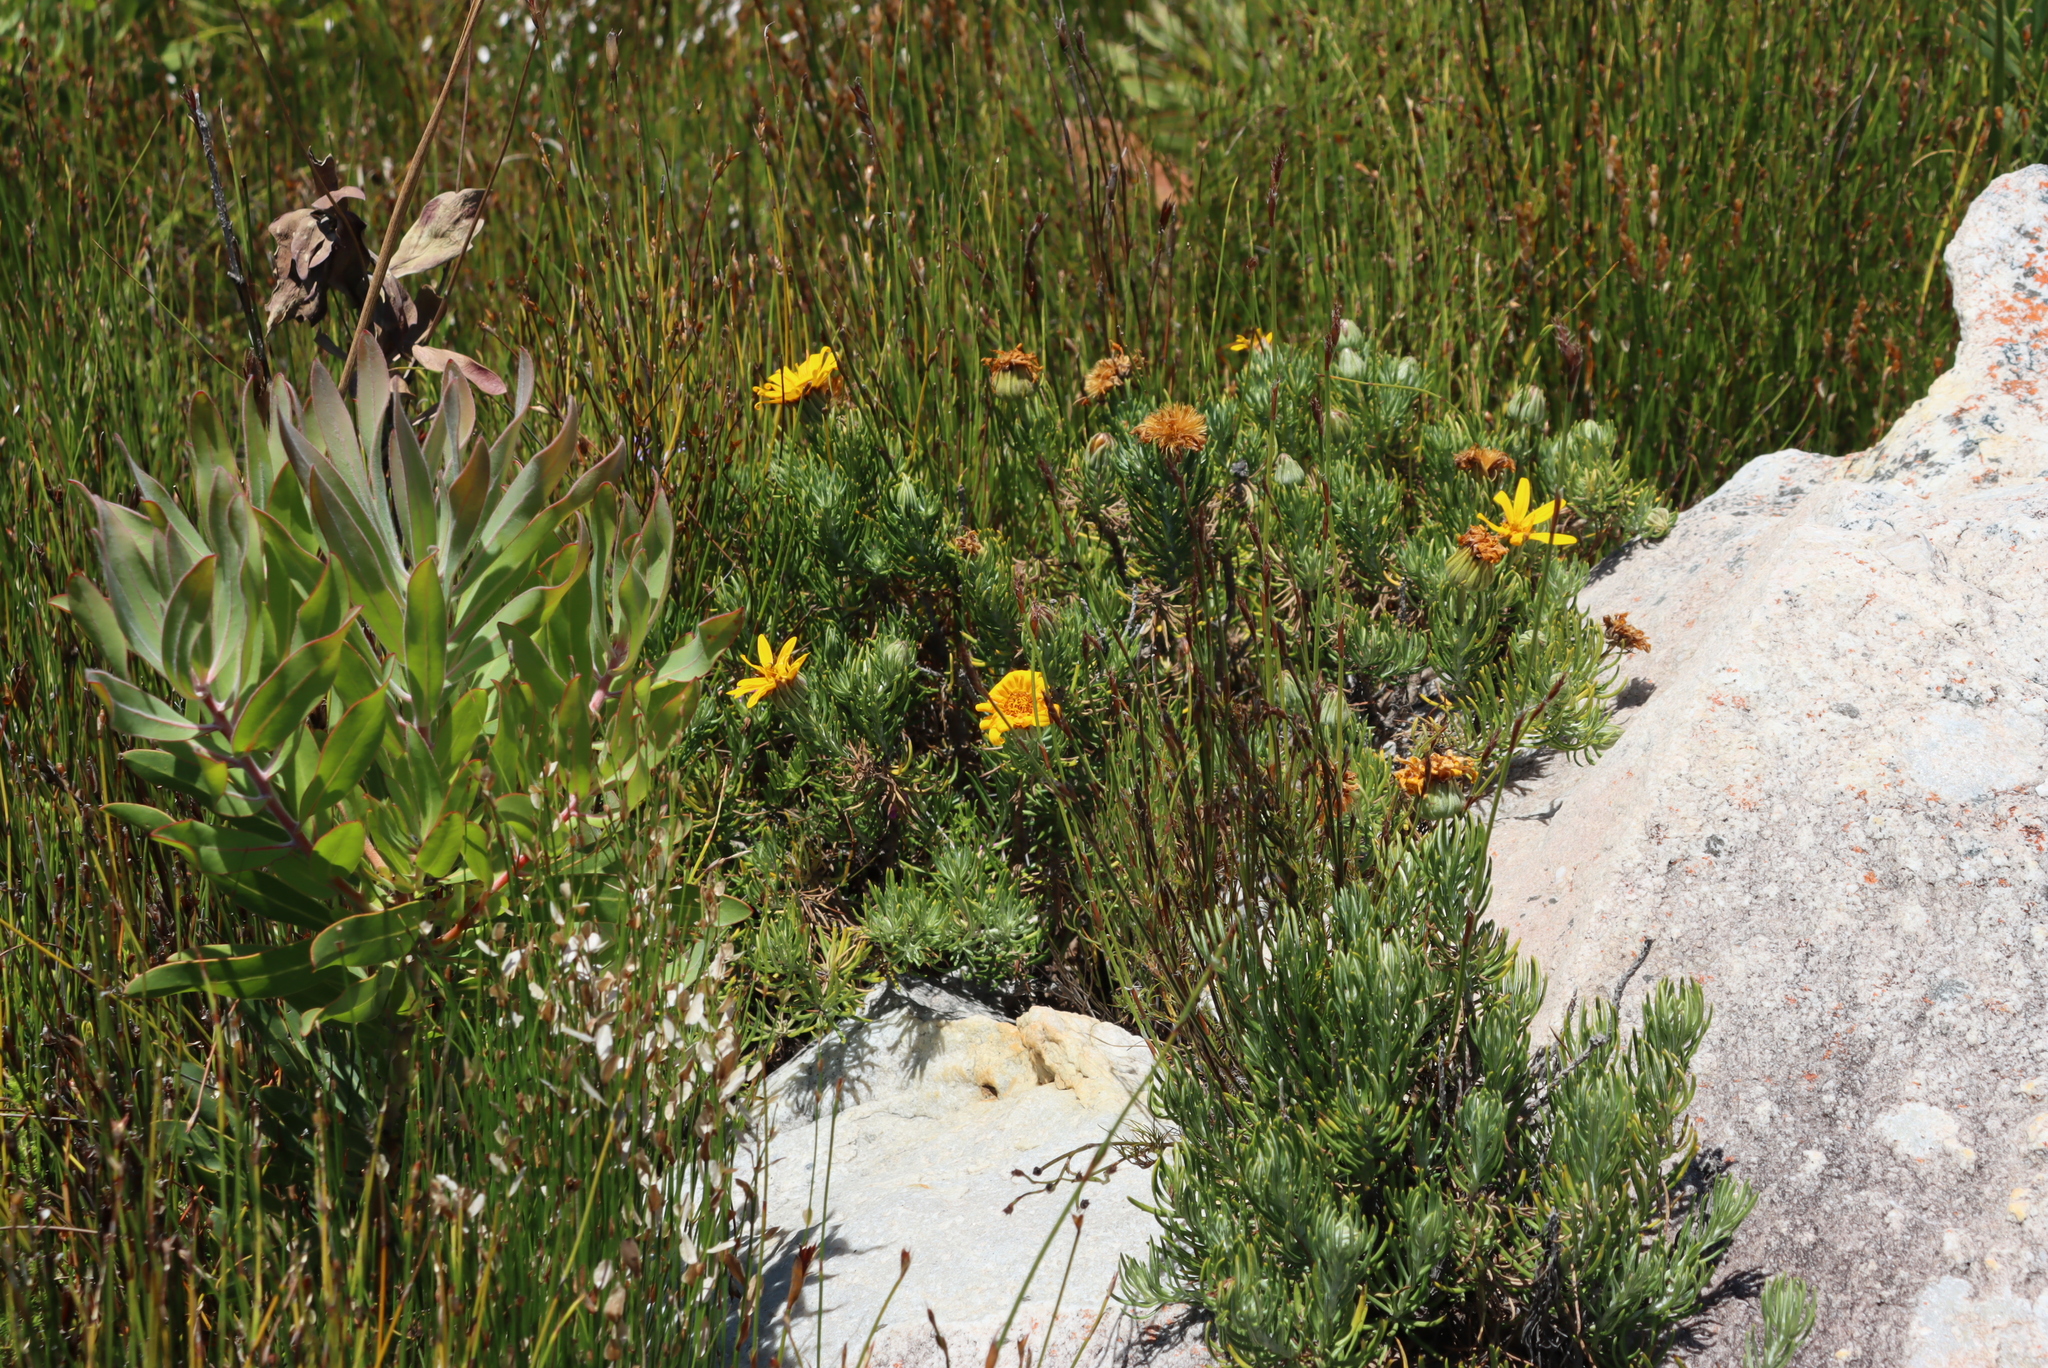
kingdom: Plantae
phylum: Tracheophyta
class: Magnoliopsida
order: Asterales
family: Asteraceae
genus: Heterolepis
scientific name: Heterolepis aliena
